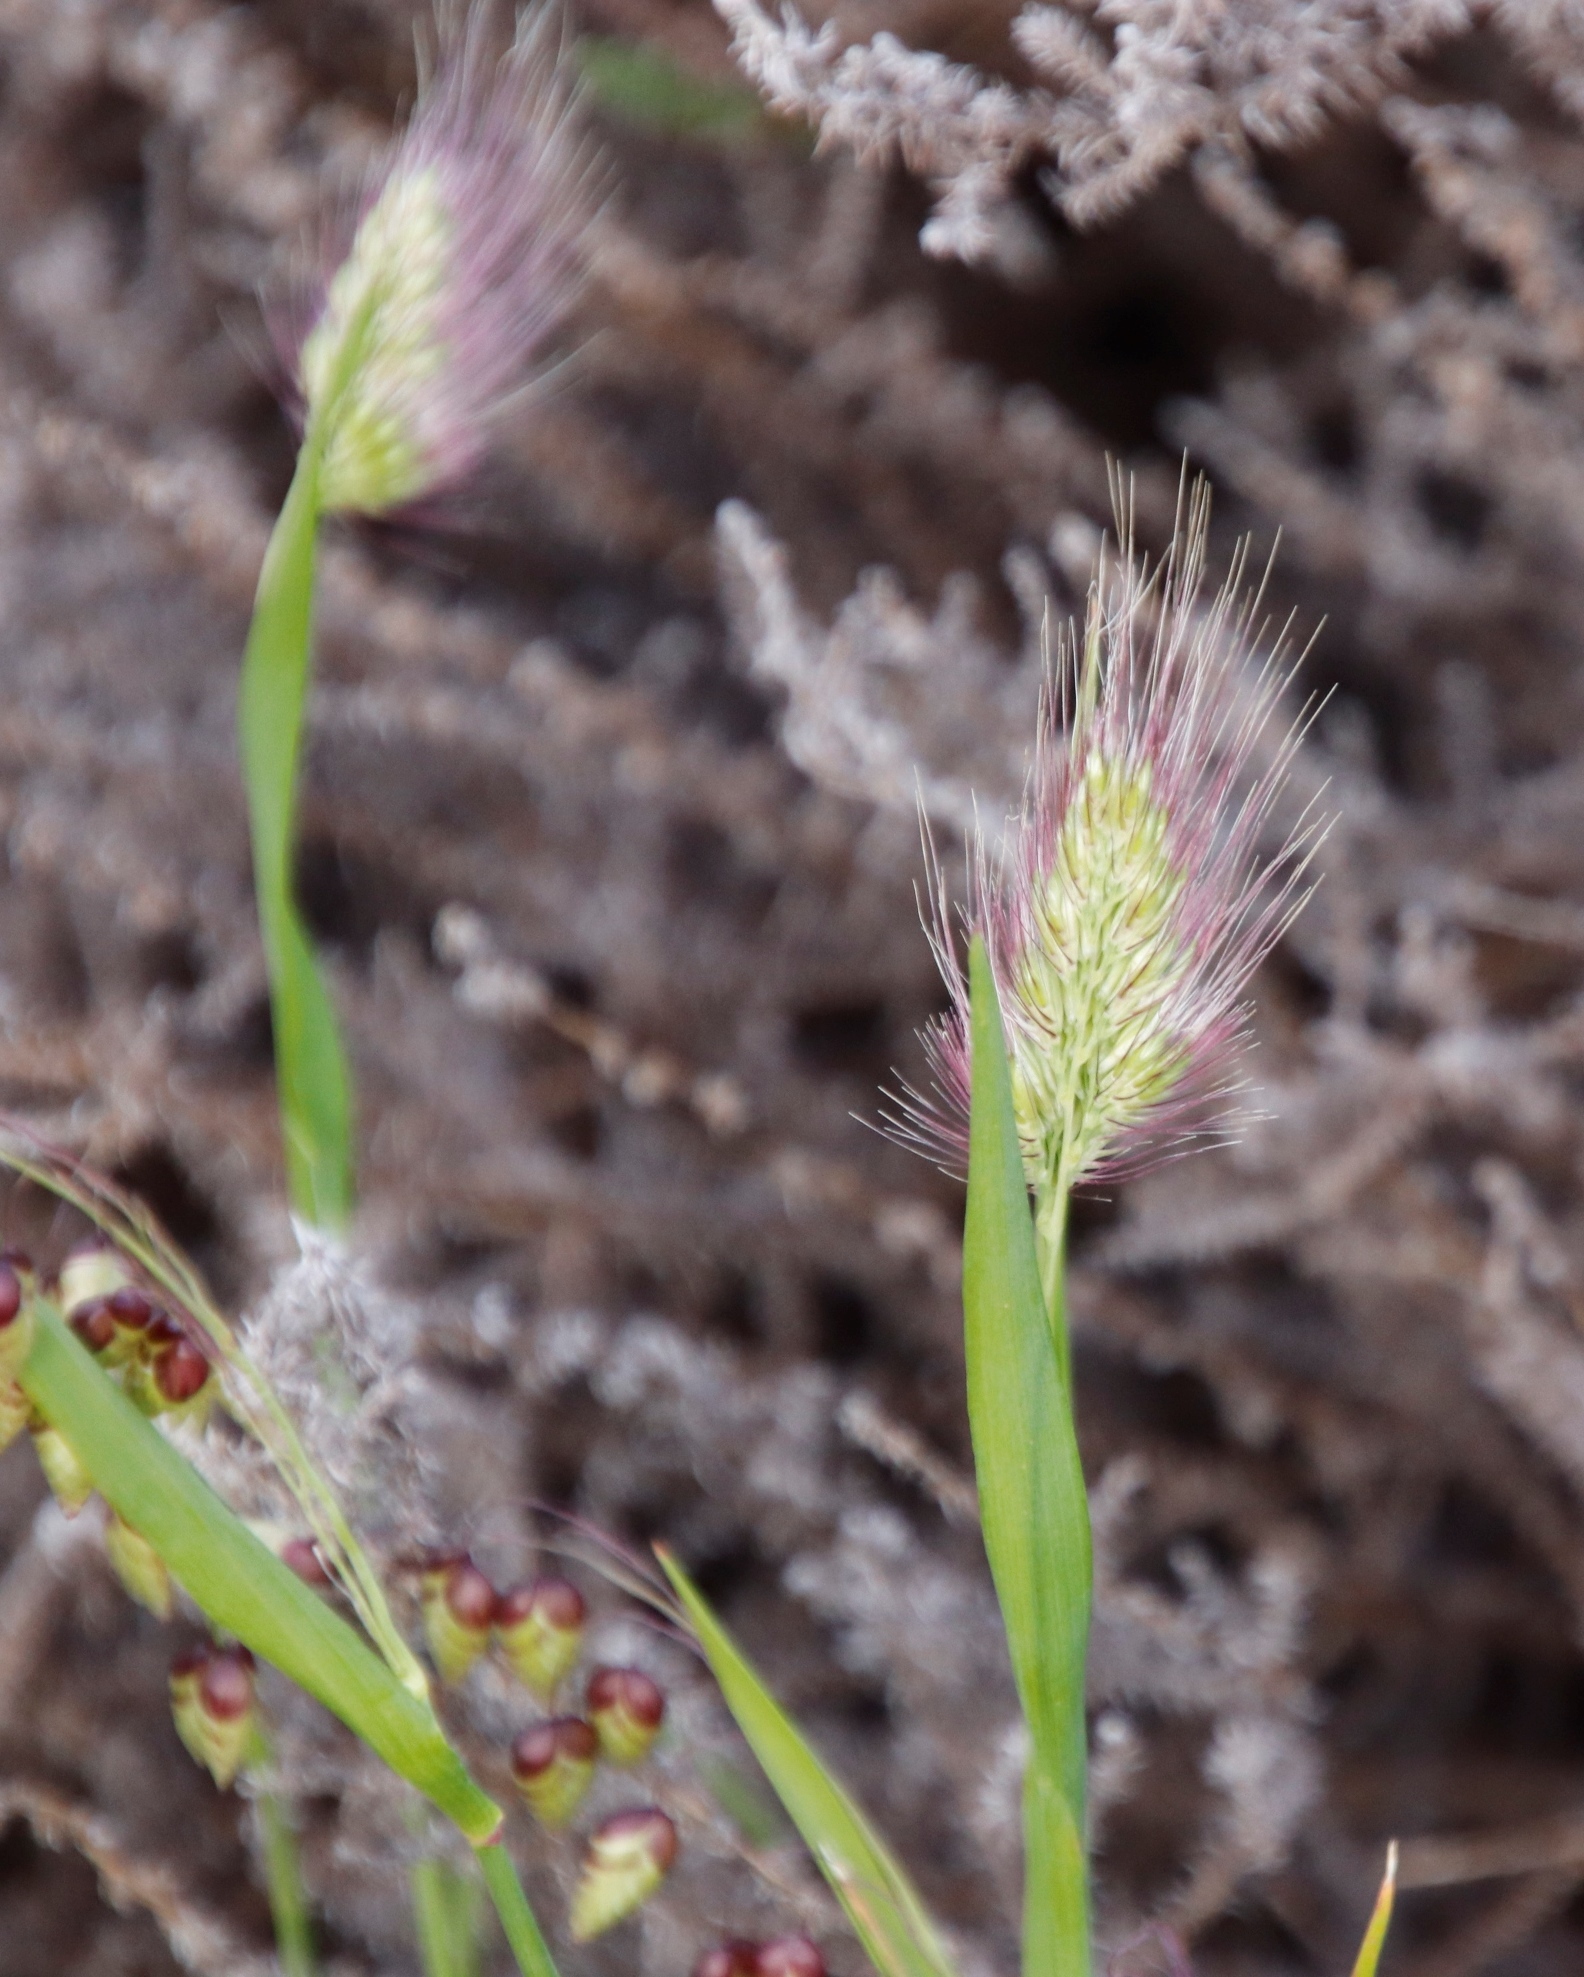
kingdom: Plantae
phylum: Tracheophyta
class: Liliopsida
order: Poales
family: Poaceae
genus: Cynosurus
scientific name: Cynosurus echinatus
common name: Rough dog's-tail
